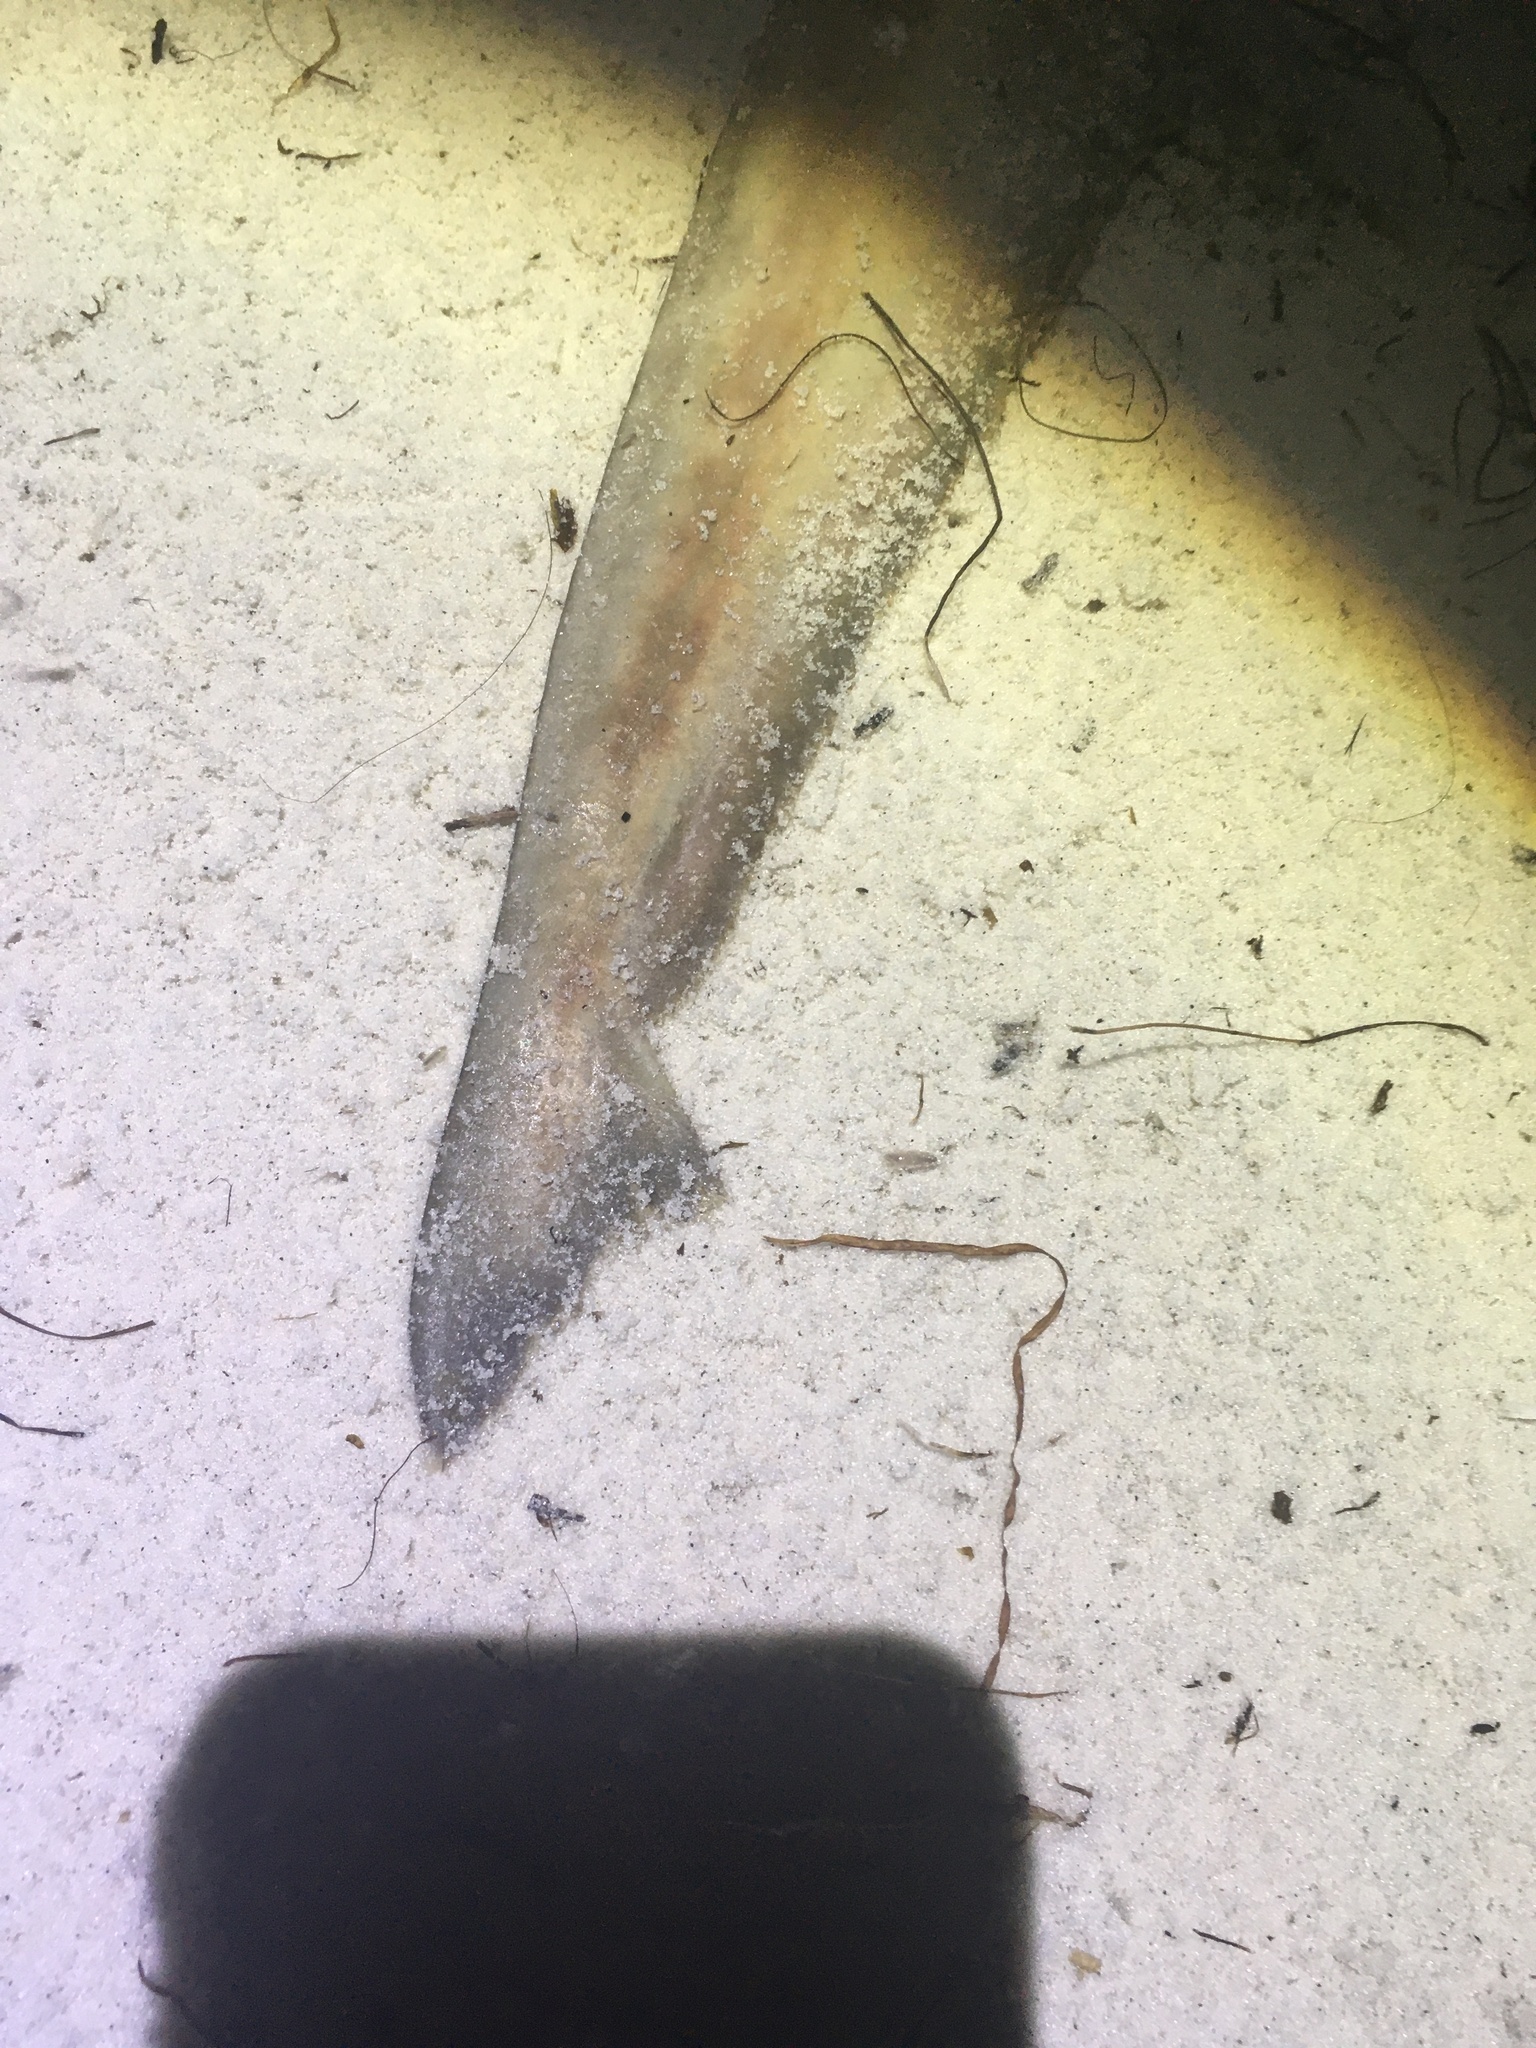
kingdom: Animalia
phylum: Chordata
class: Elasmobranchii
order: Carcharhiniformes
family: Sphyrnidae
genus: Sphyrna
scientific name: Sphyrna tiburo
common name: Bonnethead
